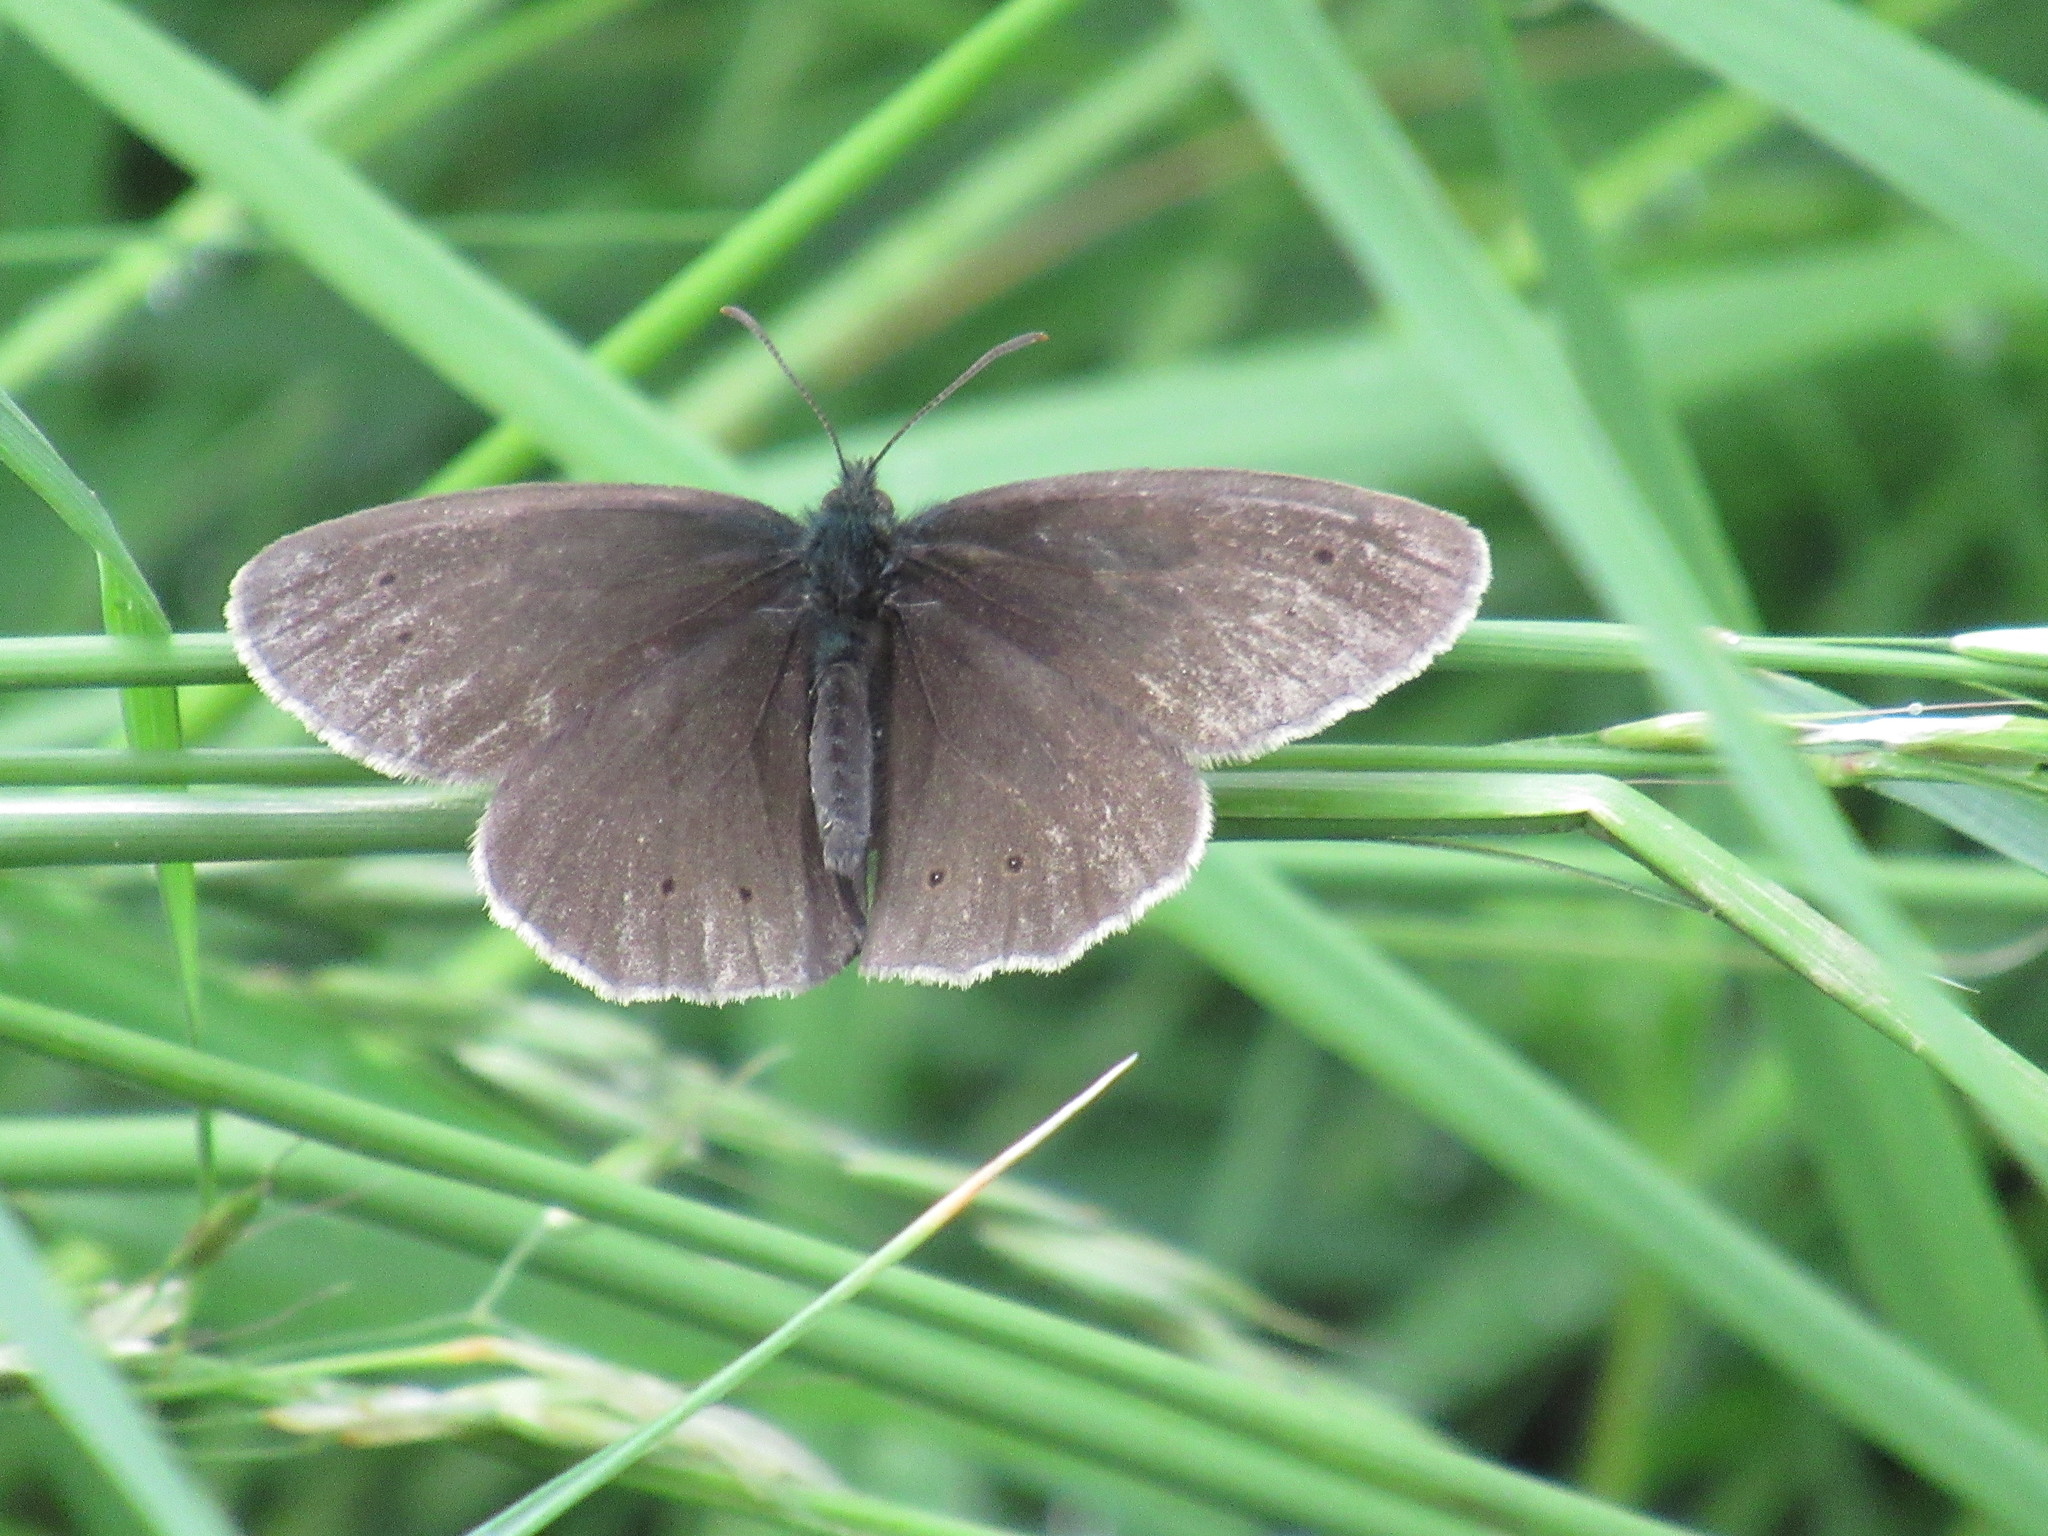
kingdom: Animalia
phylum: Arthropoda
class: Insecta
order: Lepidoptera
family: Nymphalidae
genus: Aphantopus
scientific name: Aphantopus hyperantus
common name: Ringlet
